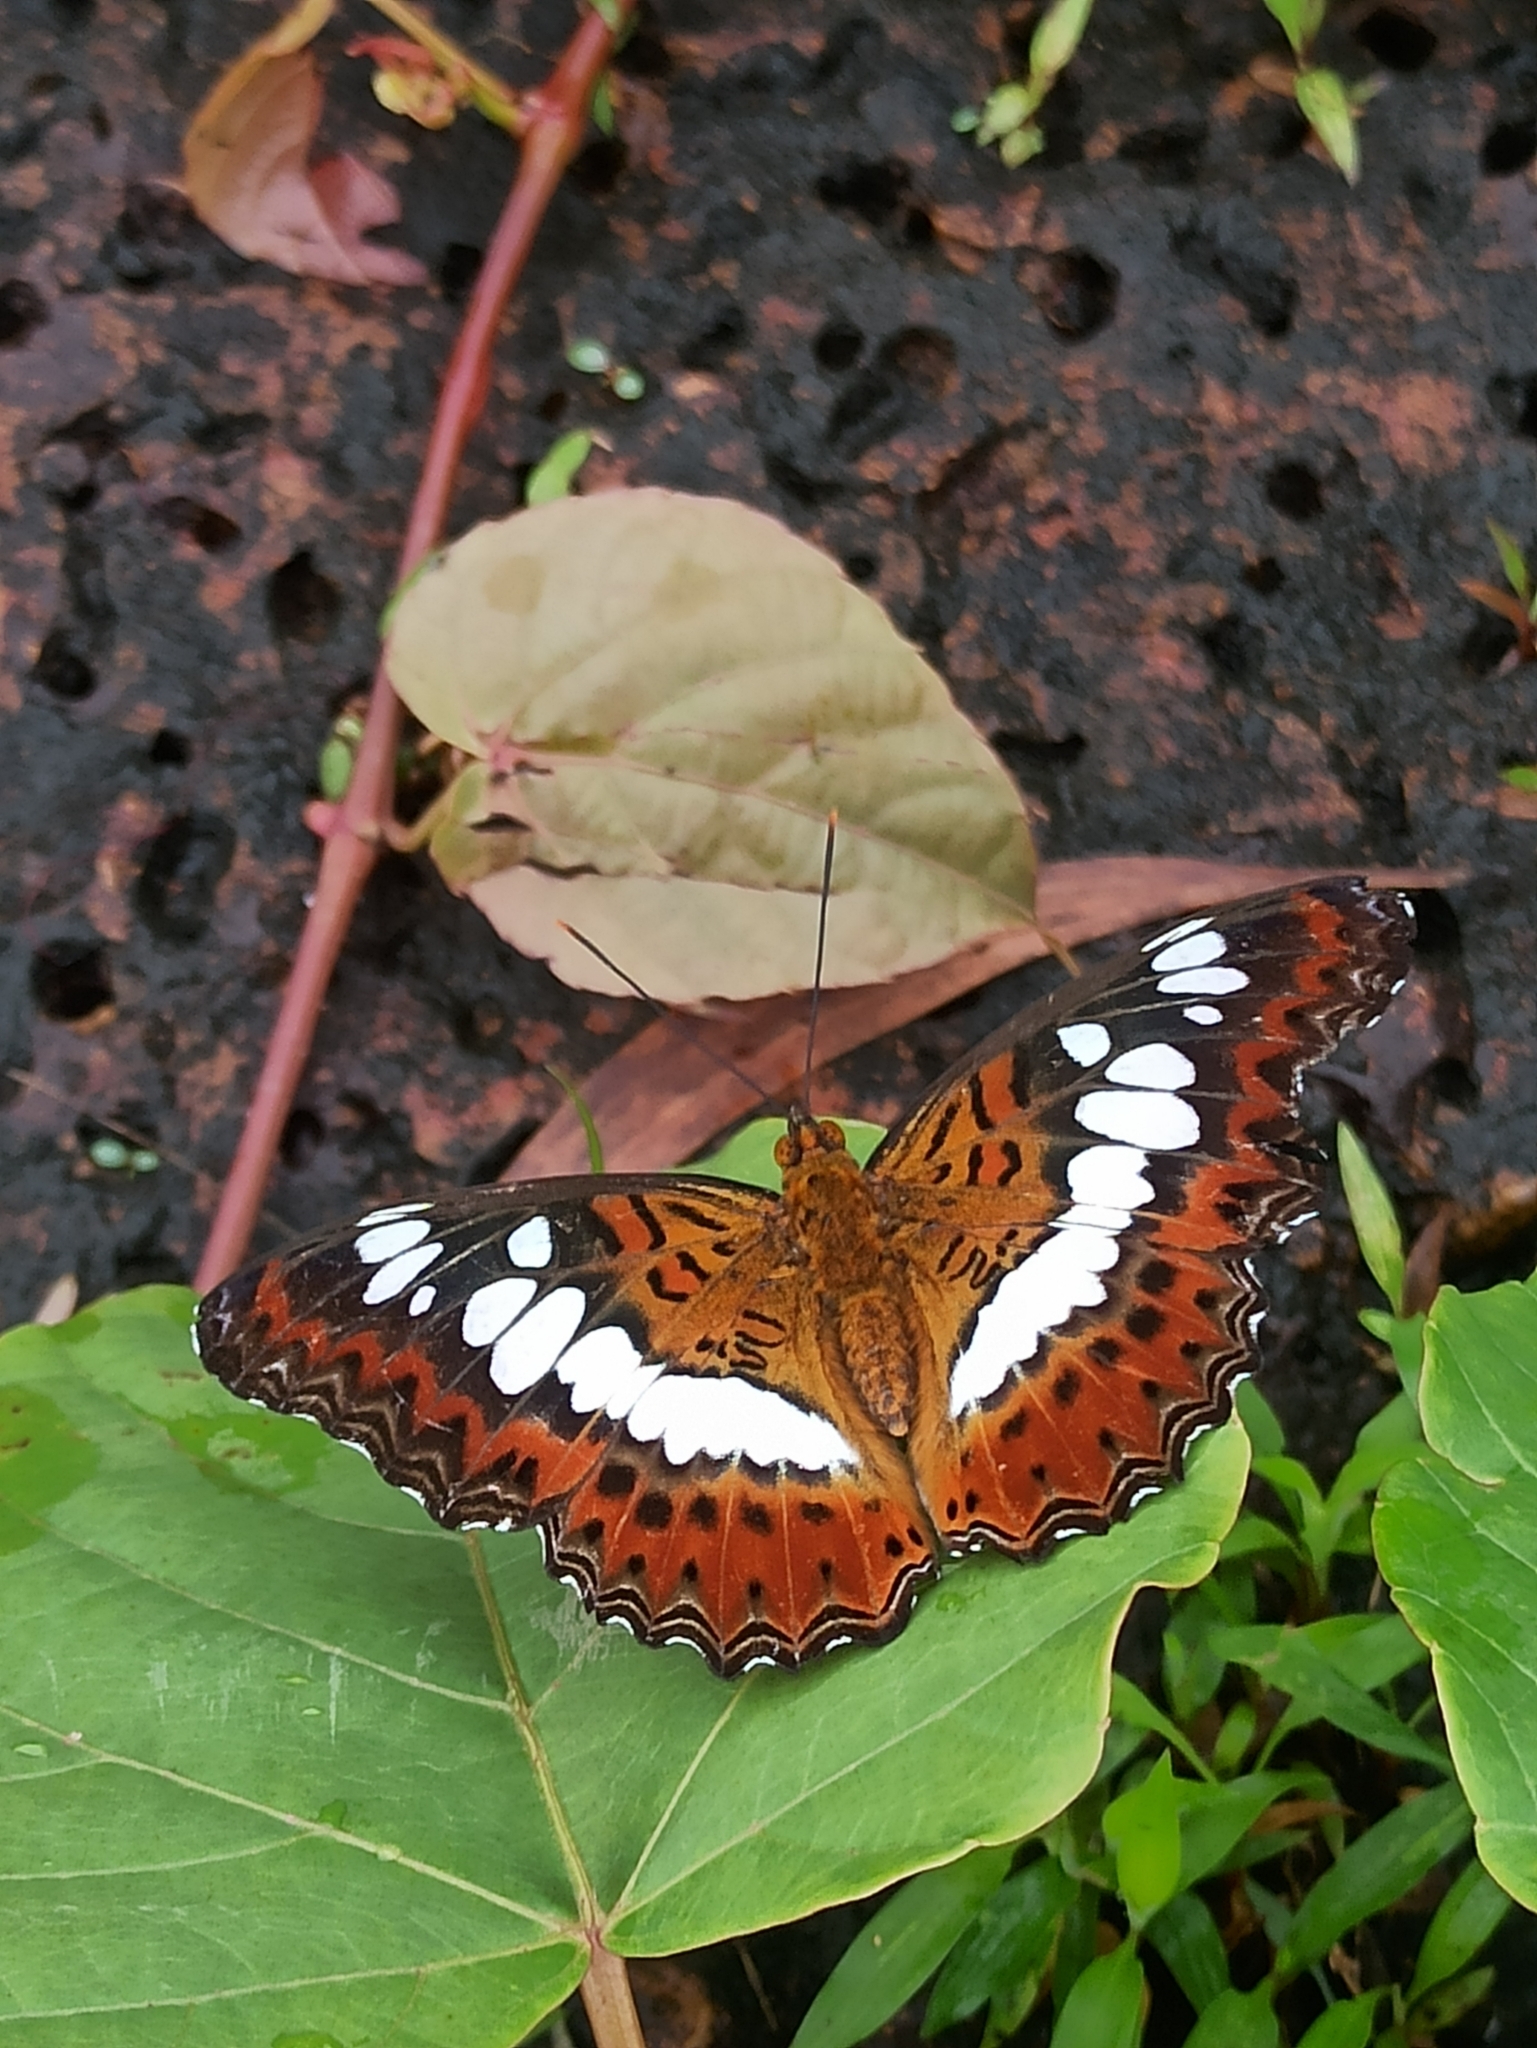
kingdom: Animalia
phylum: Arthropoda
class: Insecta
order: Lepidoptera
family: Nymphalidae
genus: Limenitis
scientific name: Limenitis Moduza procris
